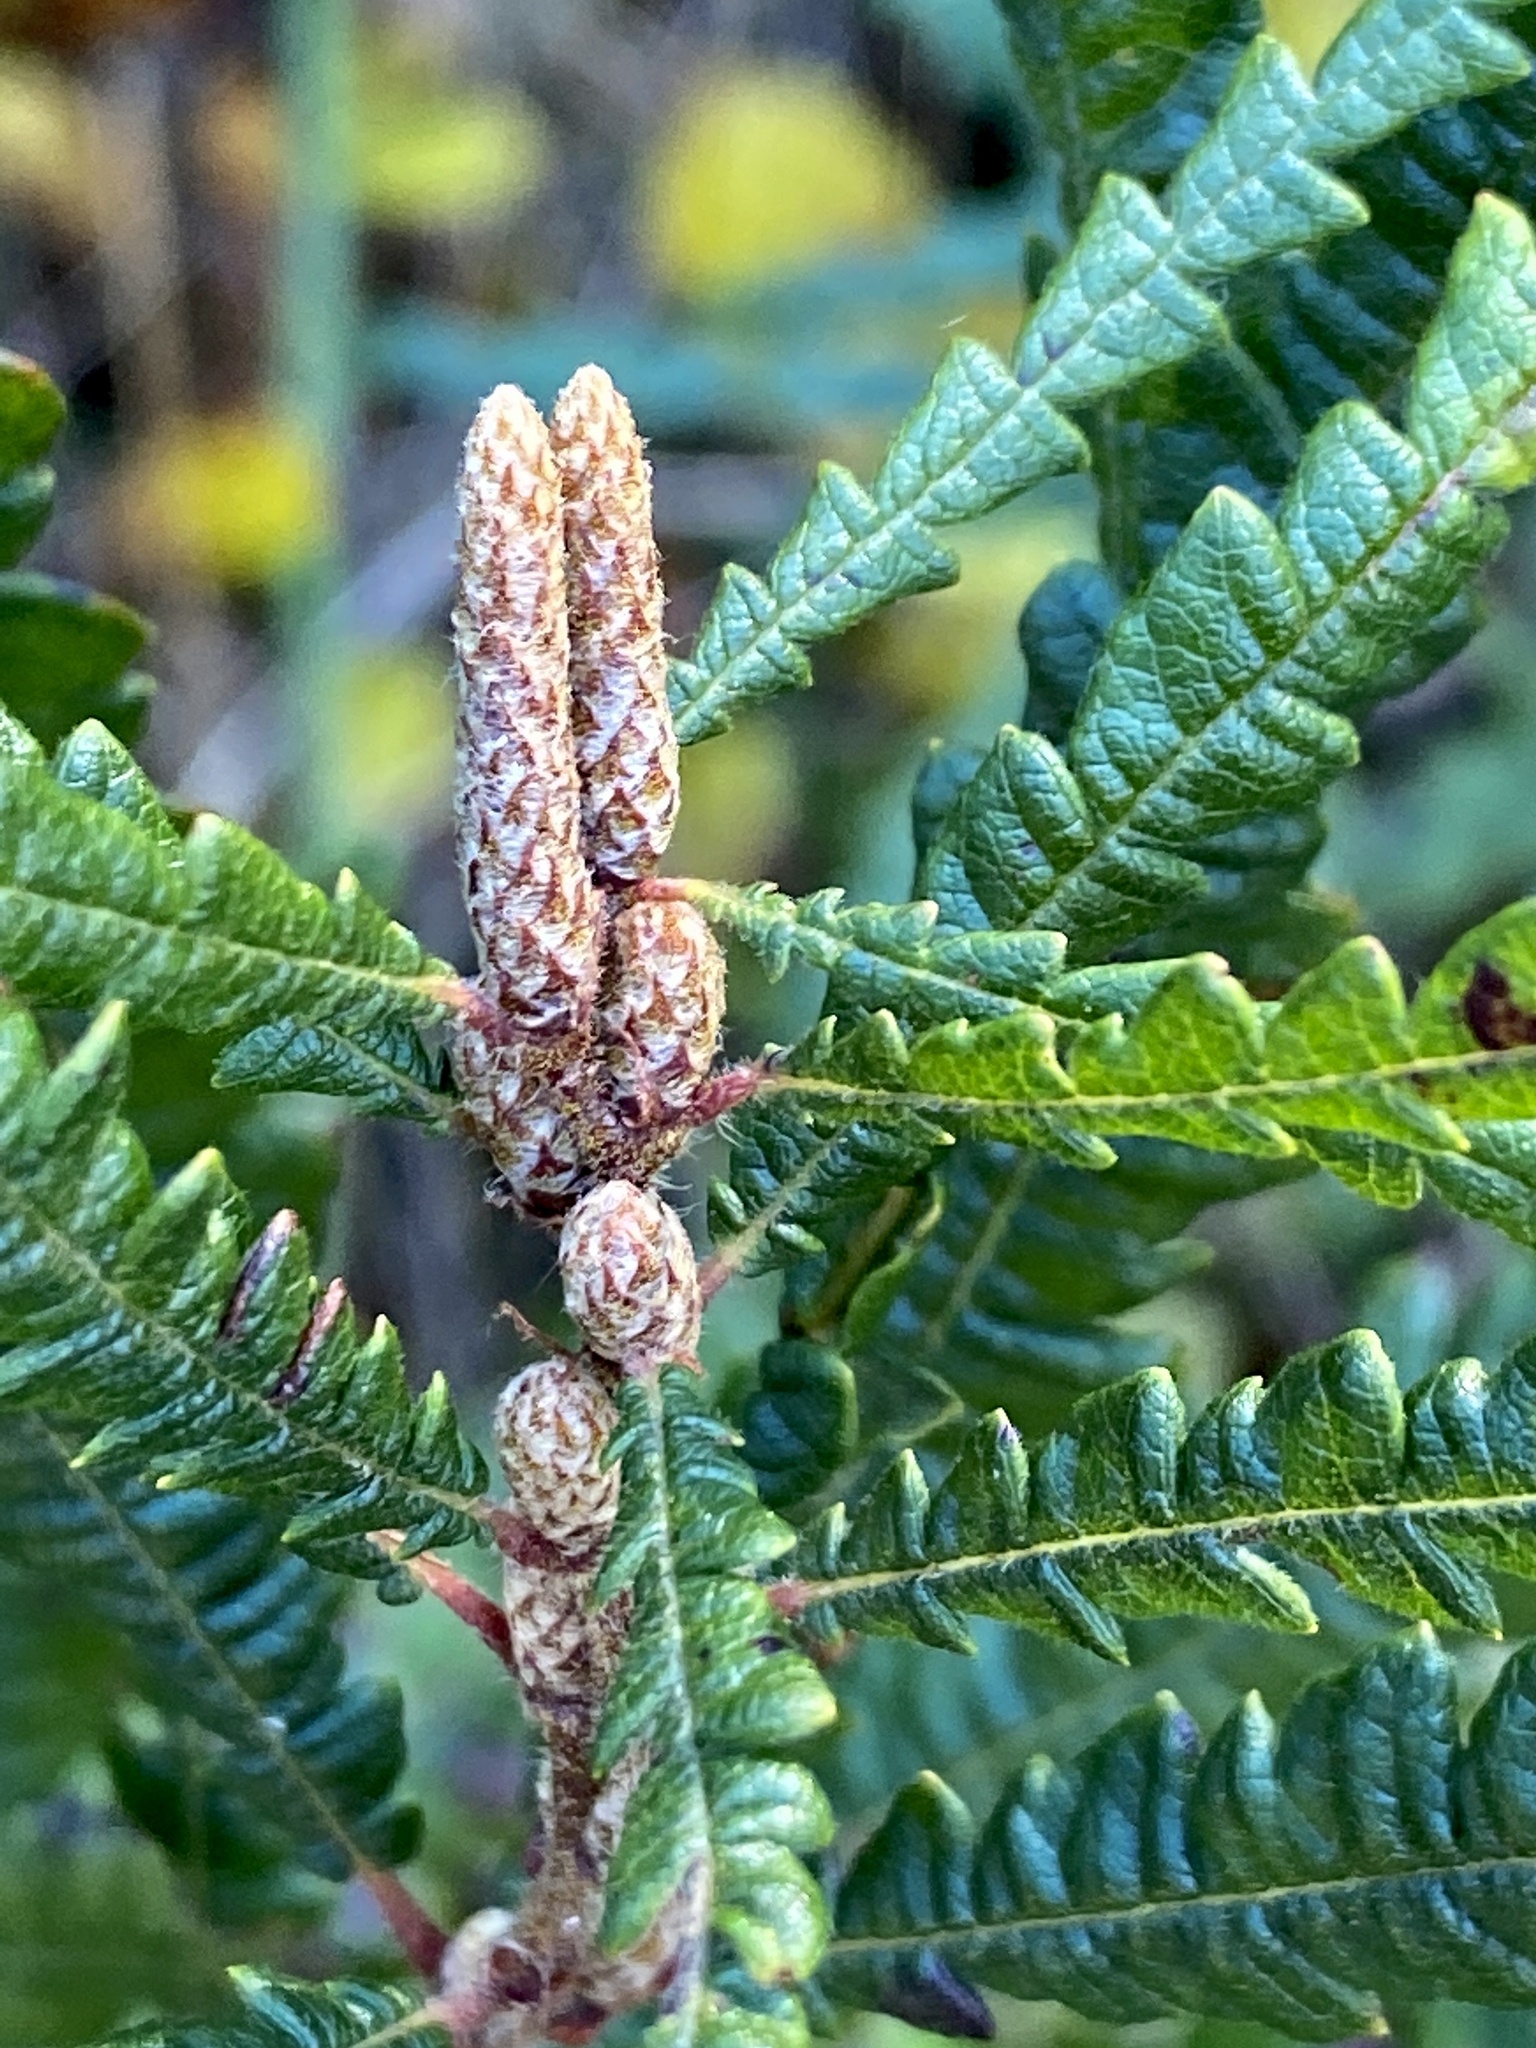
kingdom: Plantae
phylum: Tracheophyta
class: Magnoliopsida
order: Fagales
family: Myricaceae
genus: Comptonia
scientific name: Comptonia peregrina
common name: Sweet-fern
